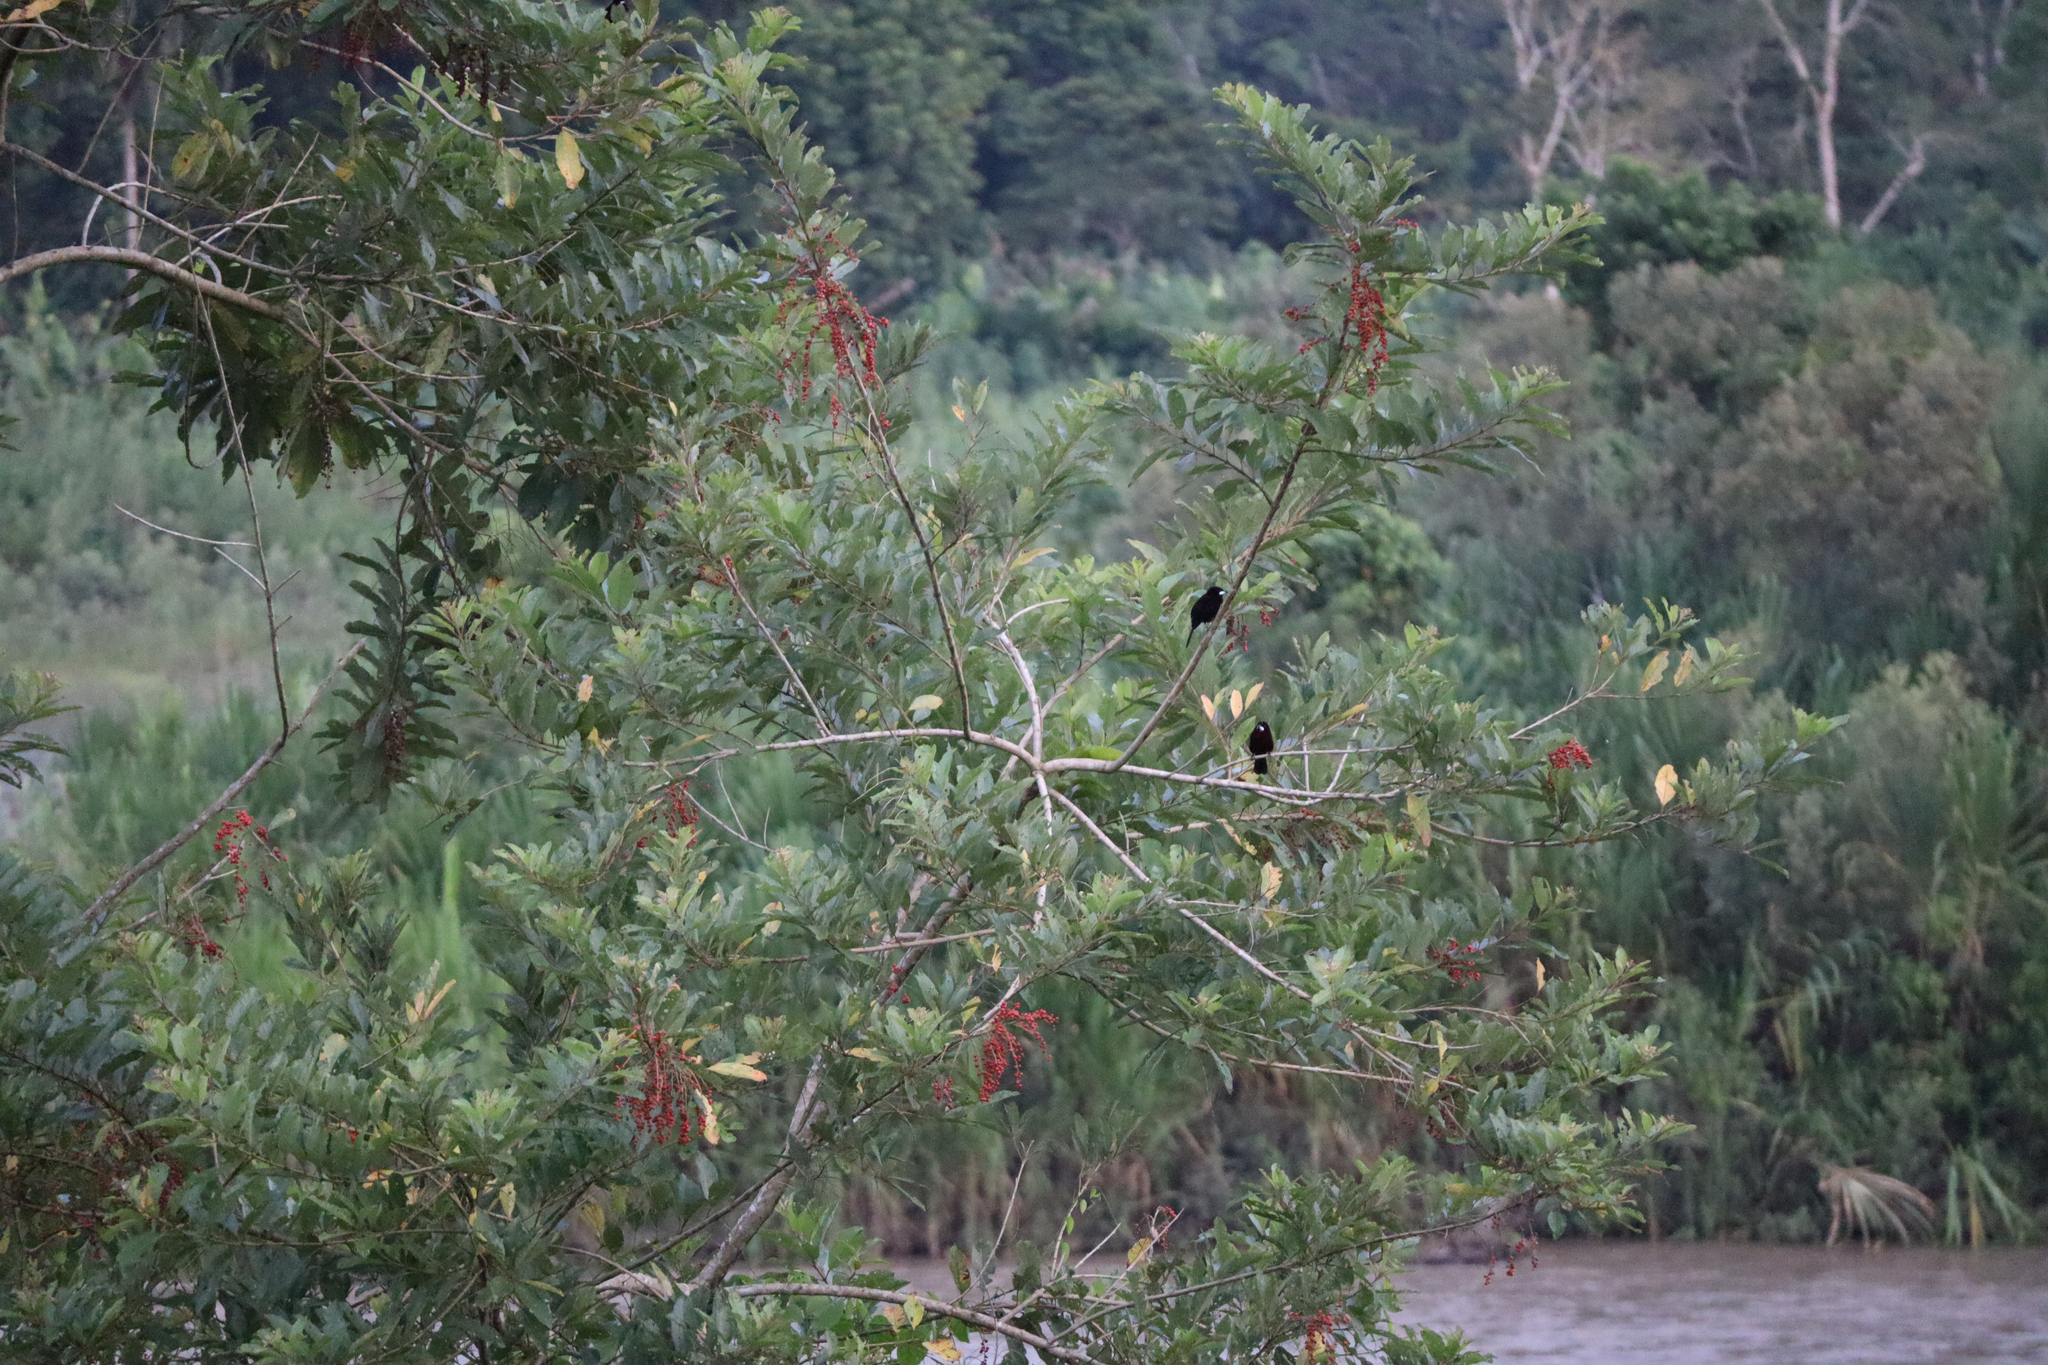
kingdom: Animalia
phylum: Chordata
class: Aves
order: Passeriformes
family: Thraupidae
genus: Ramphocelus
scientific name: Ramphocelus carbo
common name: Silver-beaked tanager
